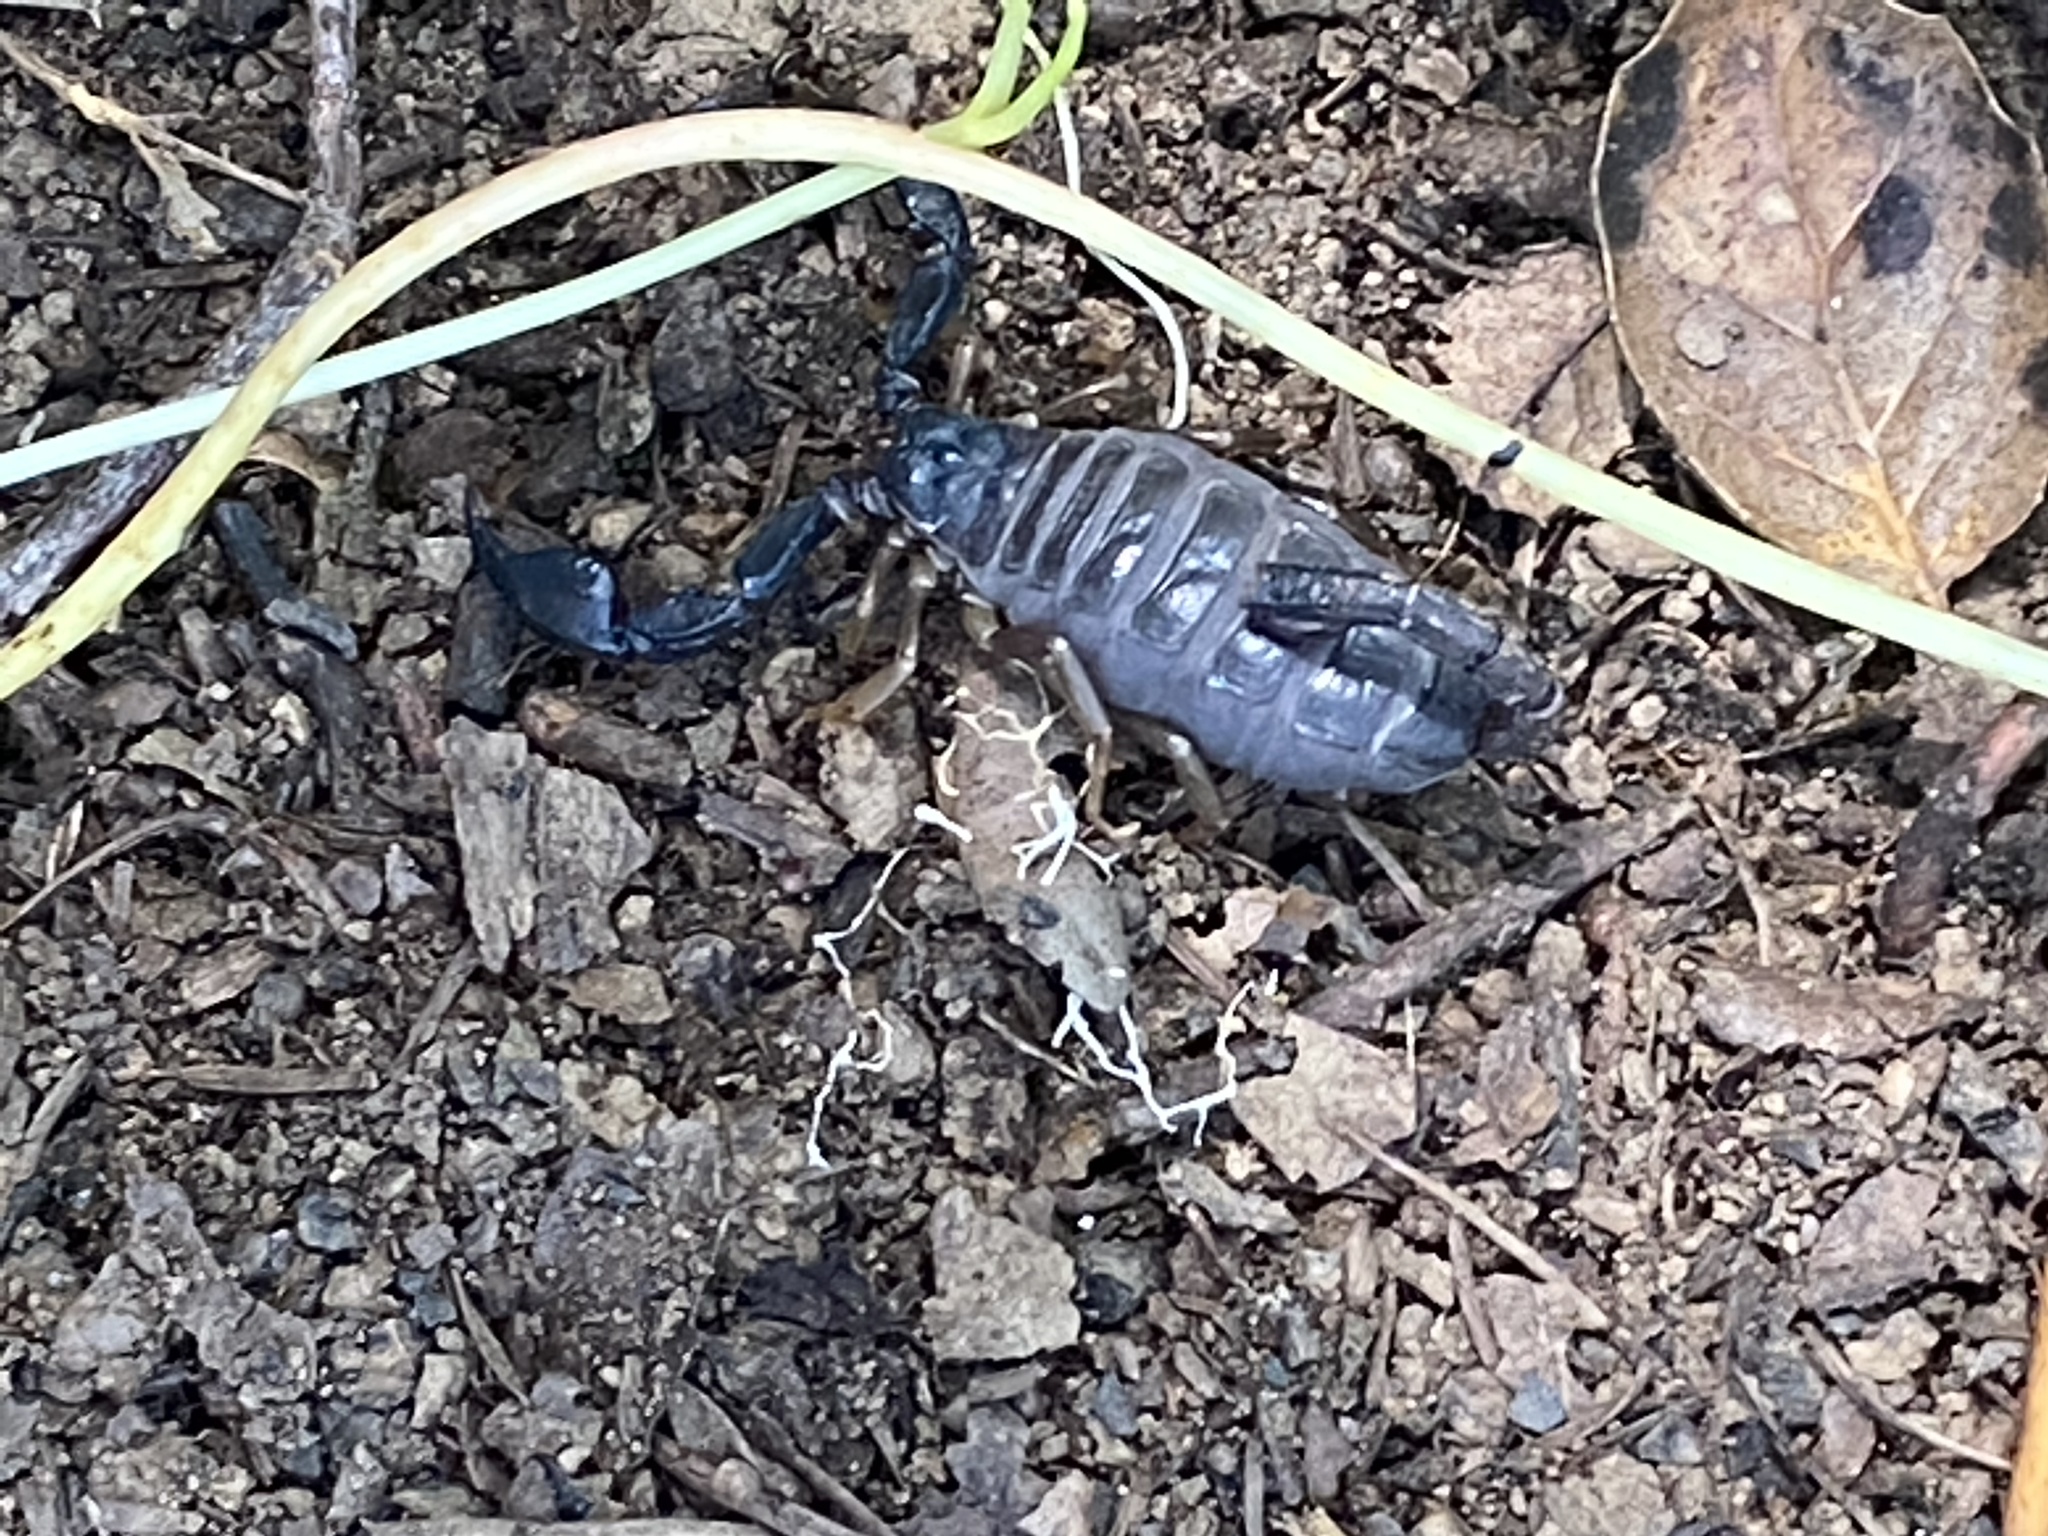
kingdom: Animalia
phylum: Arthropoda
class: Arachnida
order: Scorpiones
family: Chactidae
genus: Uroctonus
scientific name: Uroctonus mordax
